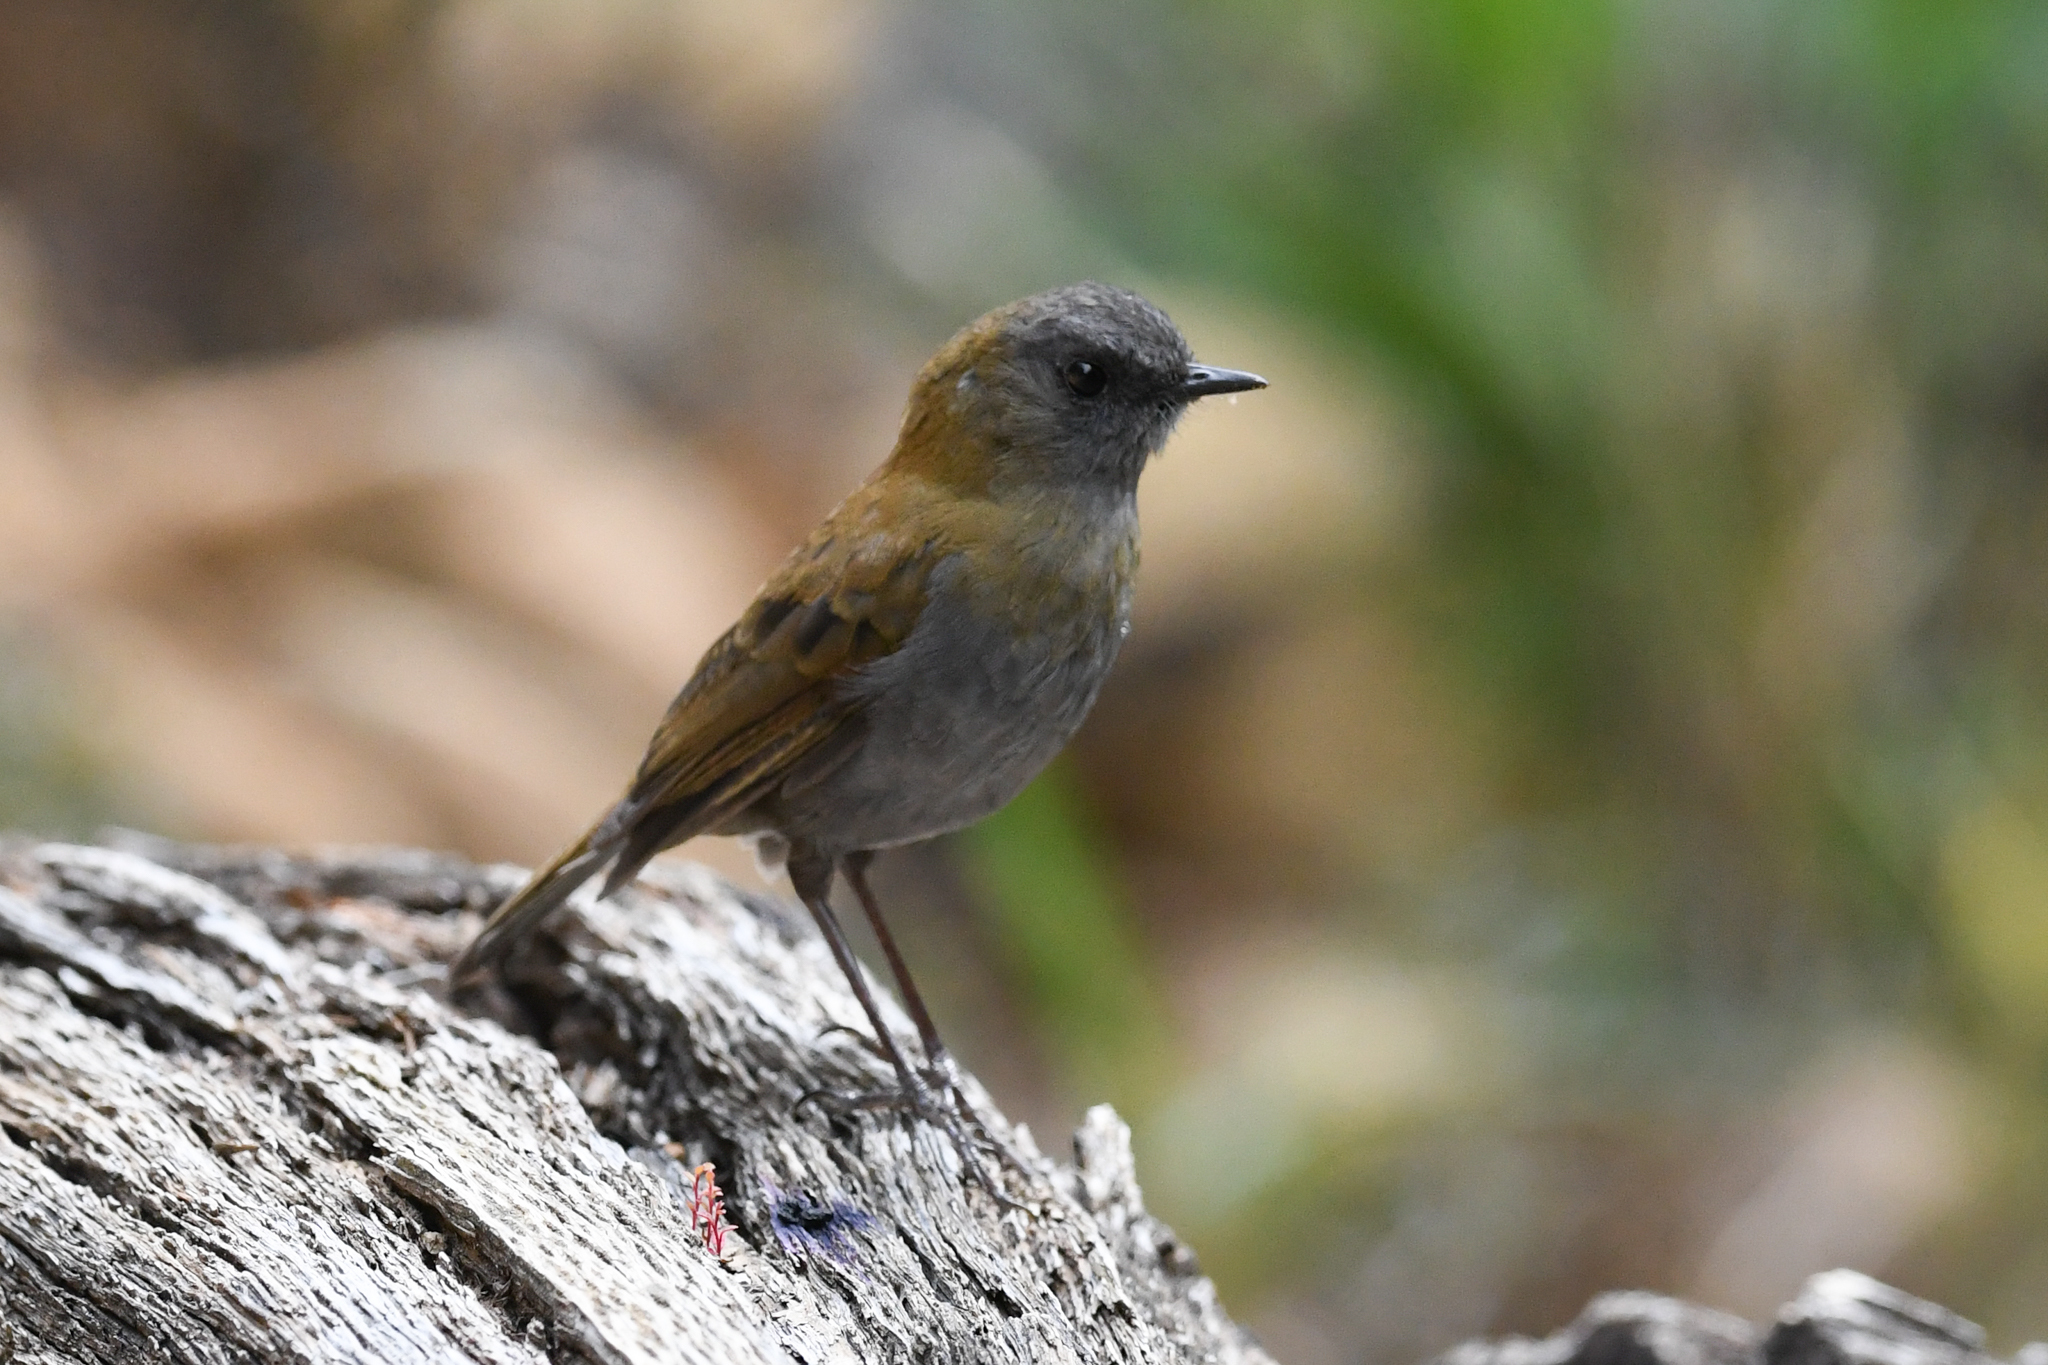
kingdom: Animalia
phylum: Chordata
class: Aves
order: Passeriformes
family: Turdidae
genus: Catharus
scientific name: Catharus gracilirostris
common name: Black-billed nightingale-thrush
